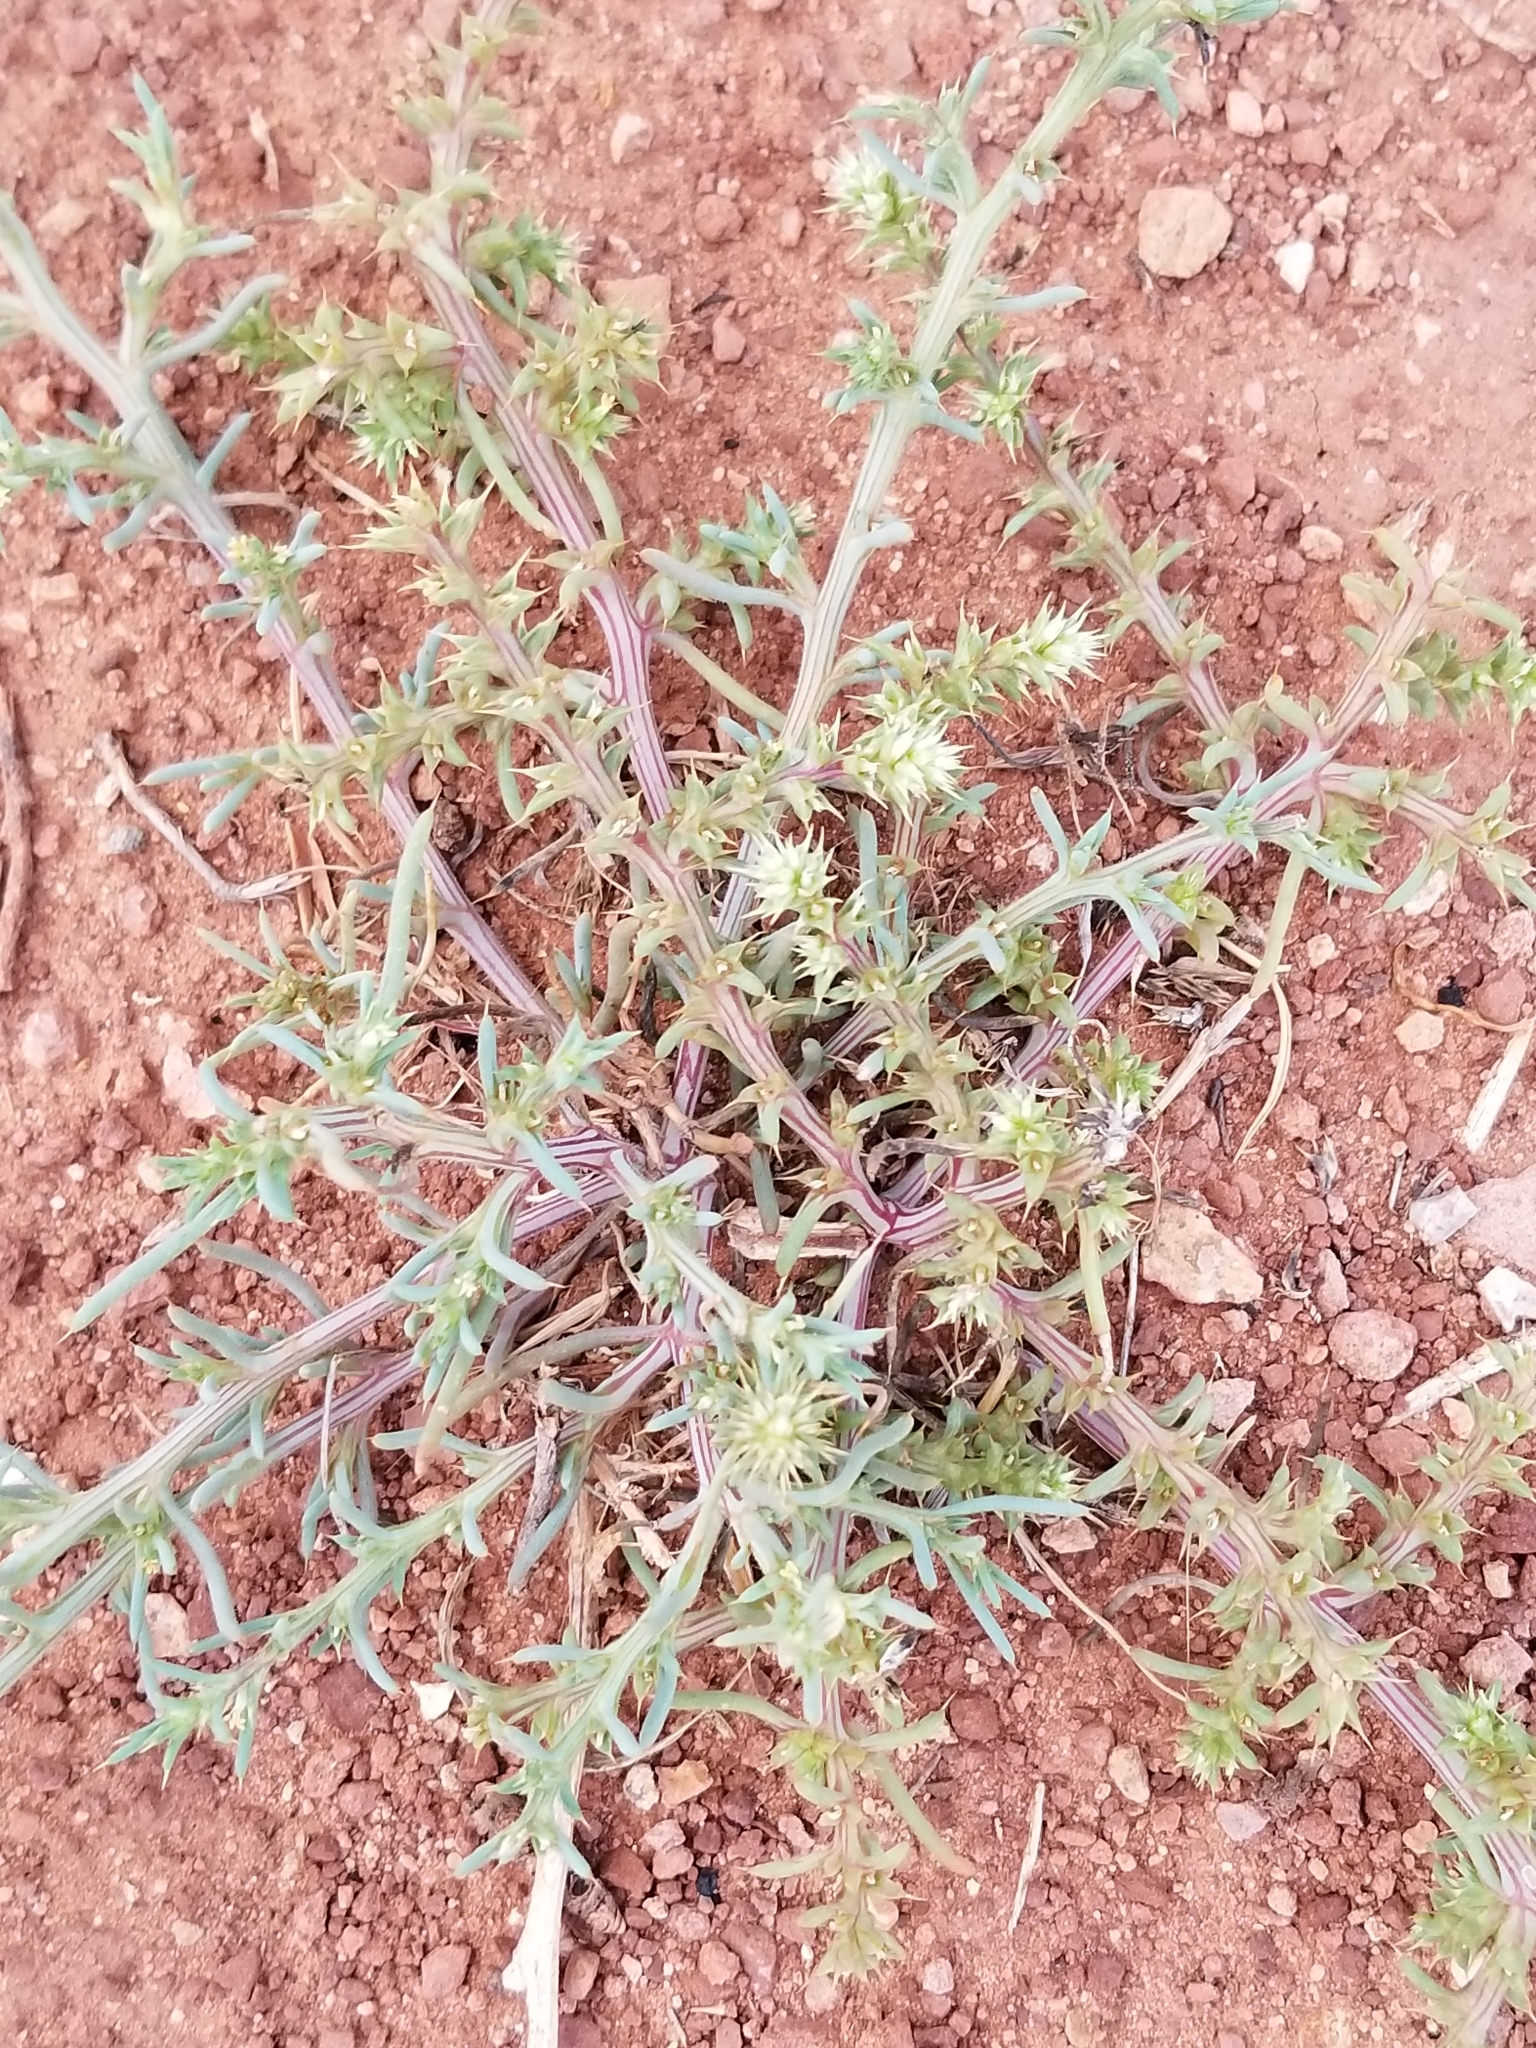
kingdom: Plantae
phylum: Tracheophyta
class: Magnoliopsida
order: Caryophyllales
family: Amaranthaceae
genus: Salsola
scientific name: Salsola tragus
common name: Prickly russian thistle
